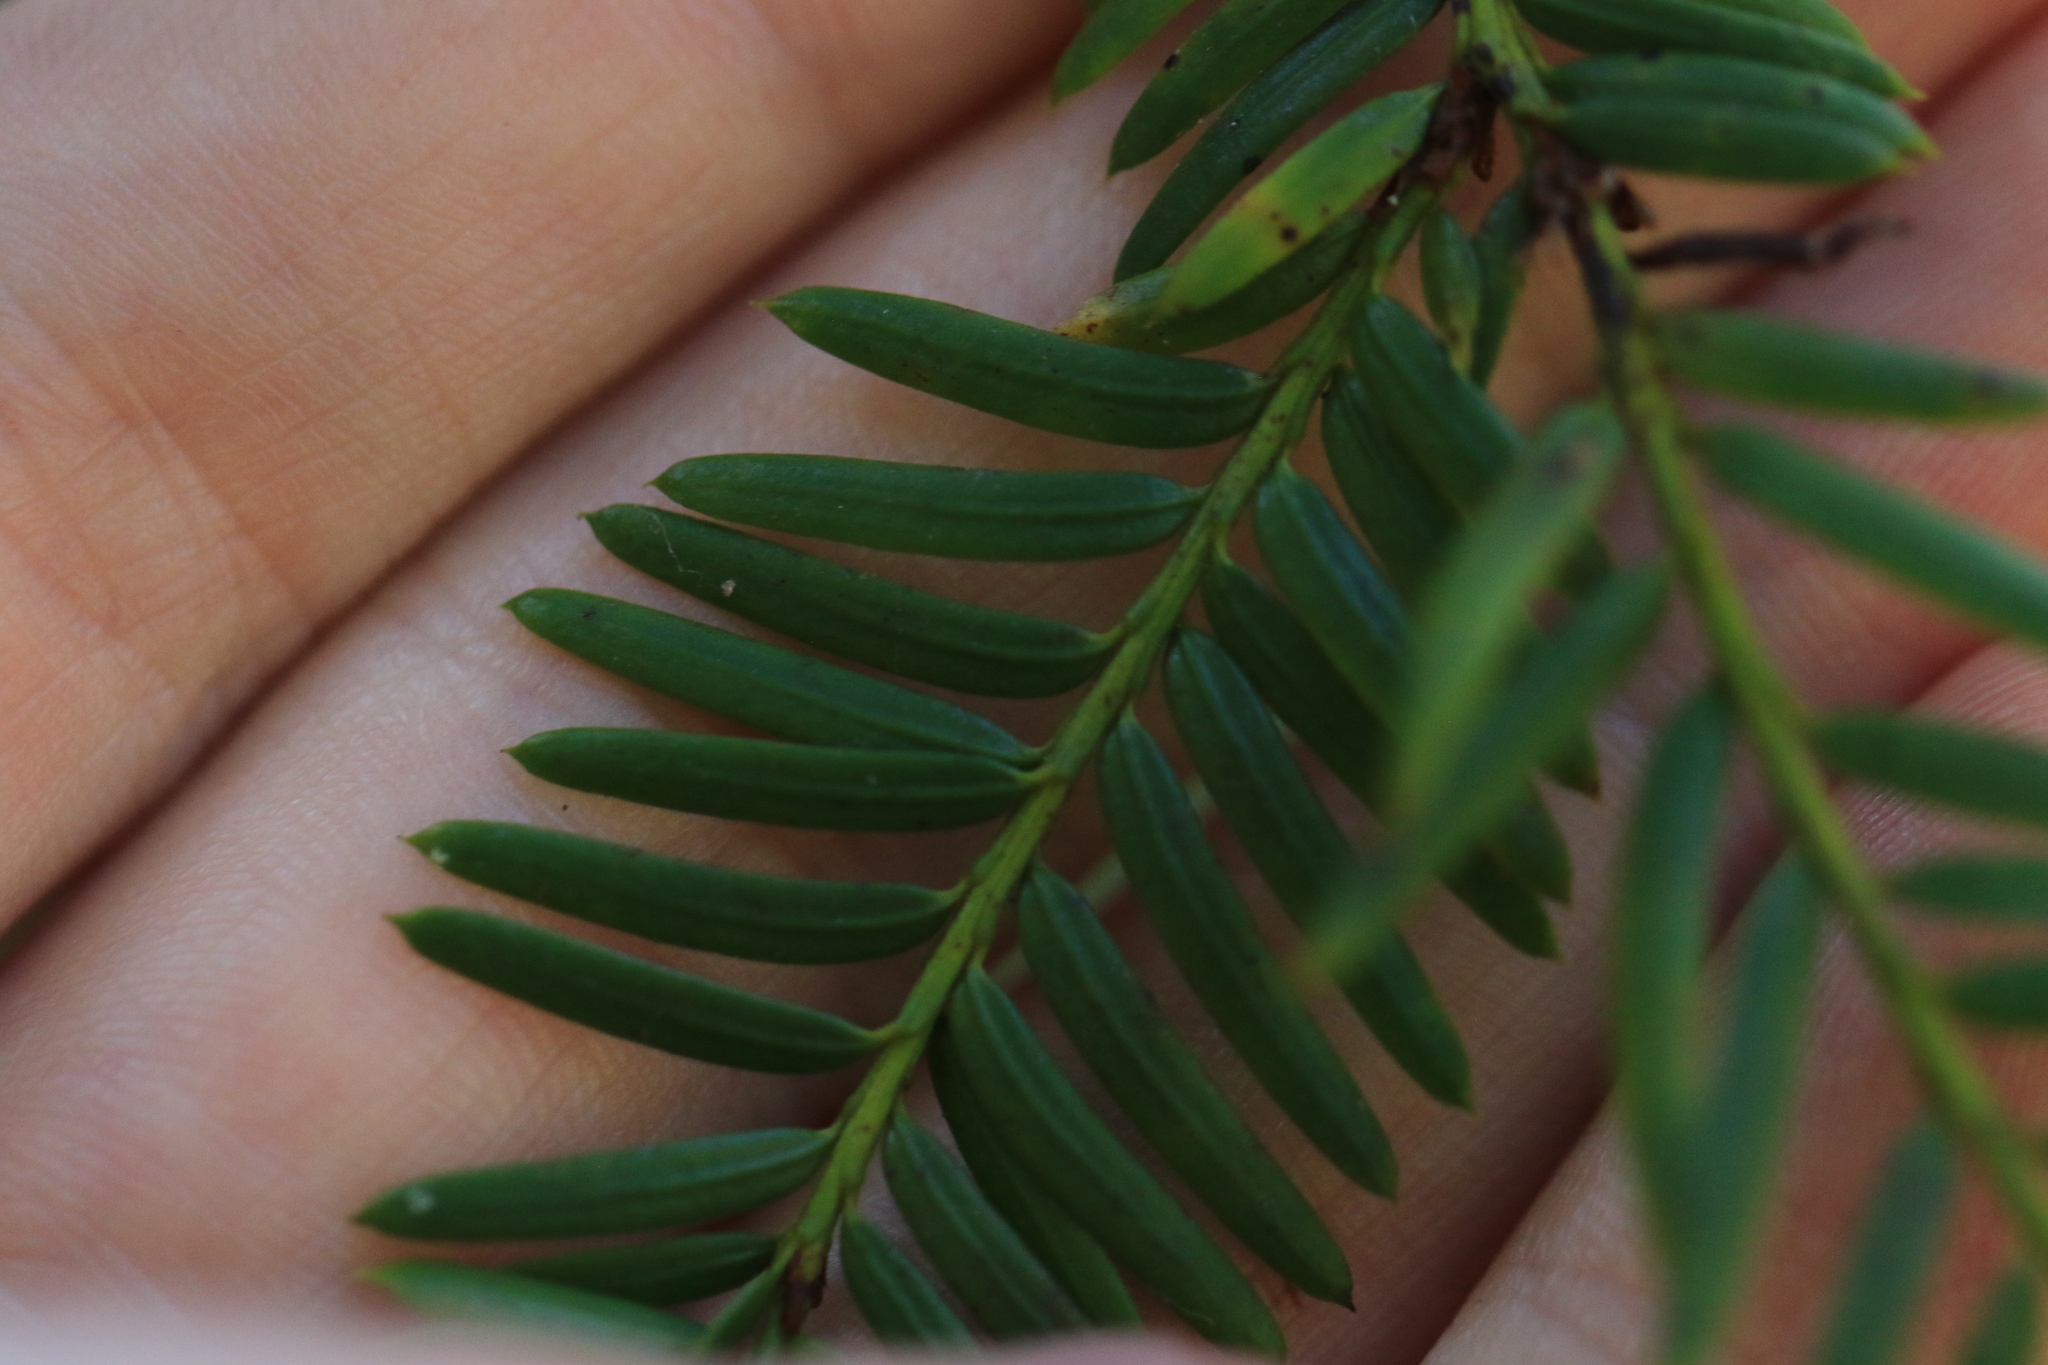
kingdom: Plantae
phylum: Tracheophyta
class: Pinopsida
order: Pinales
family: Taxaceae
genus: Taxus
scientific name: Taxus brevifolia
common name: Pacific yew
